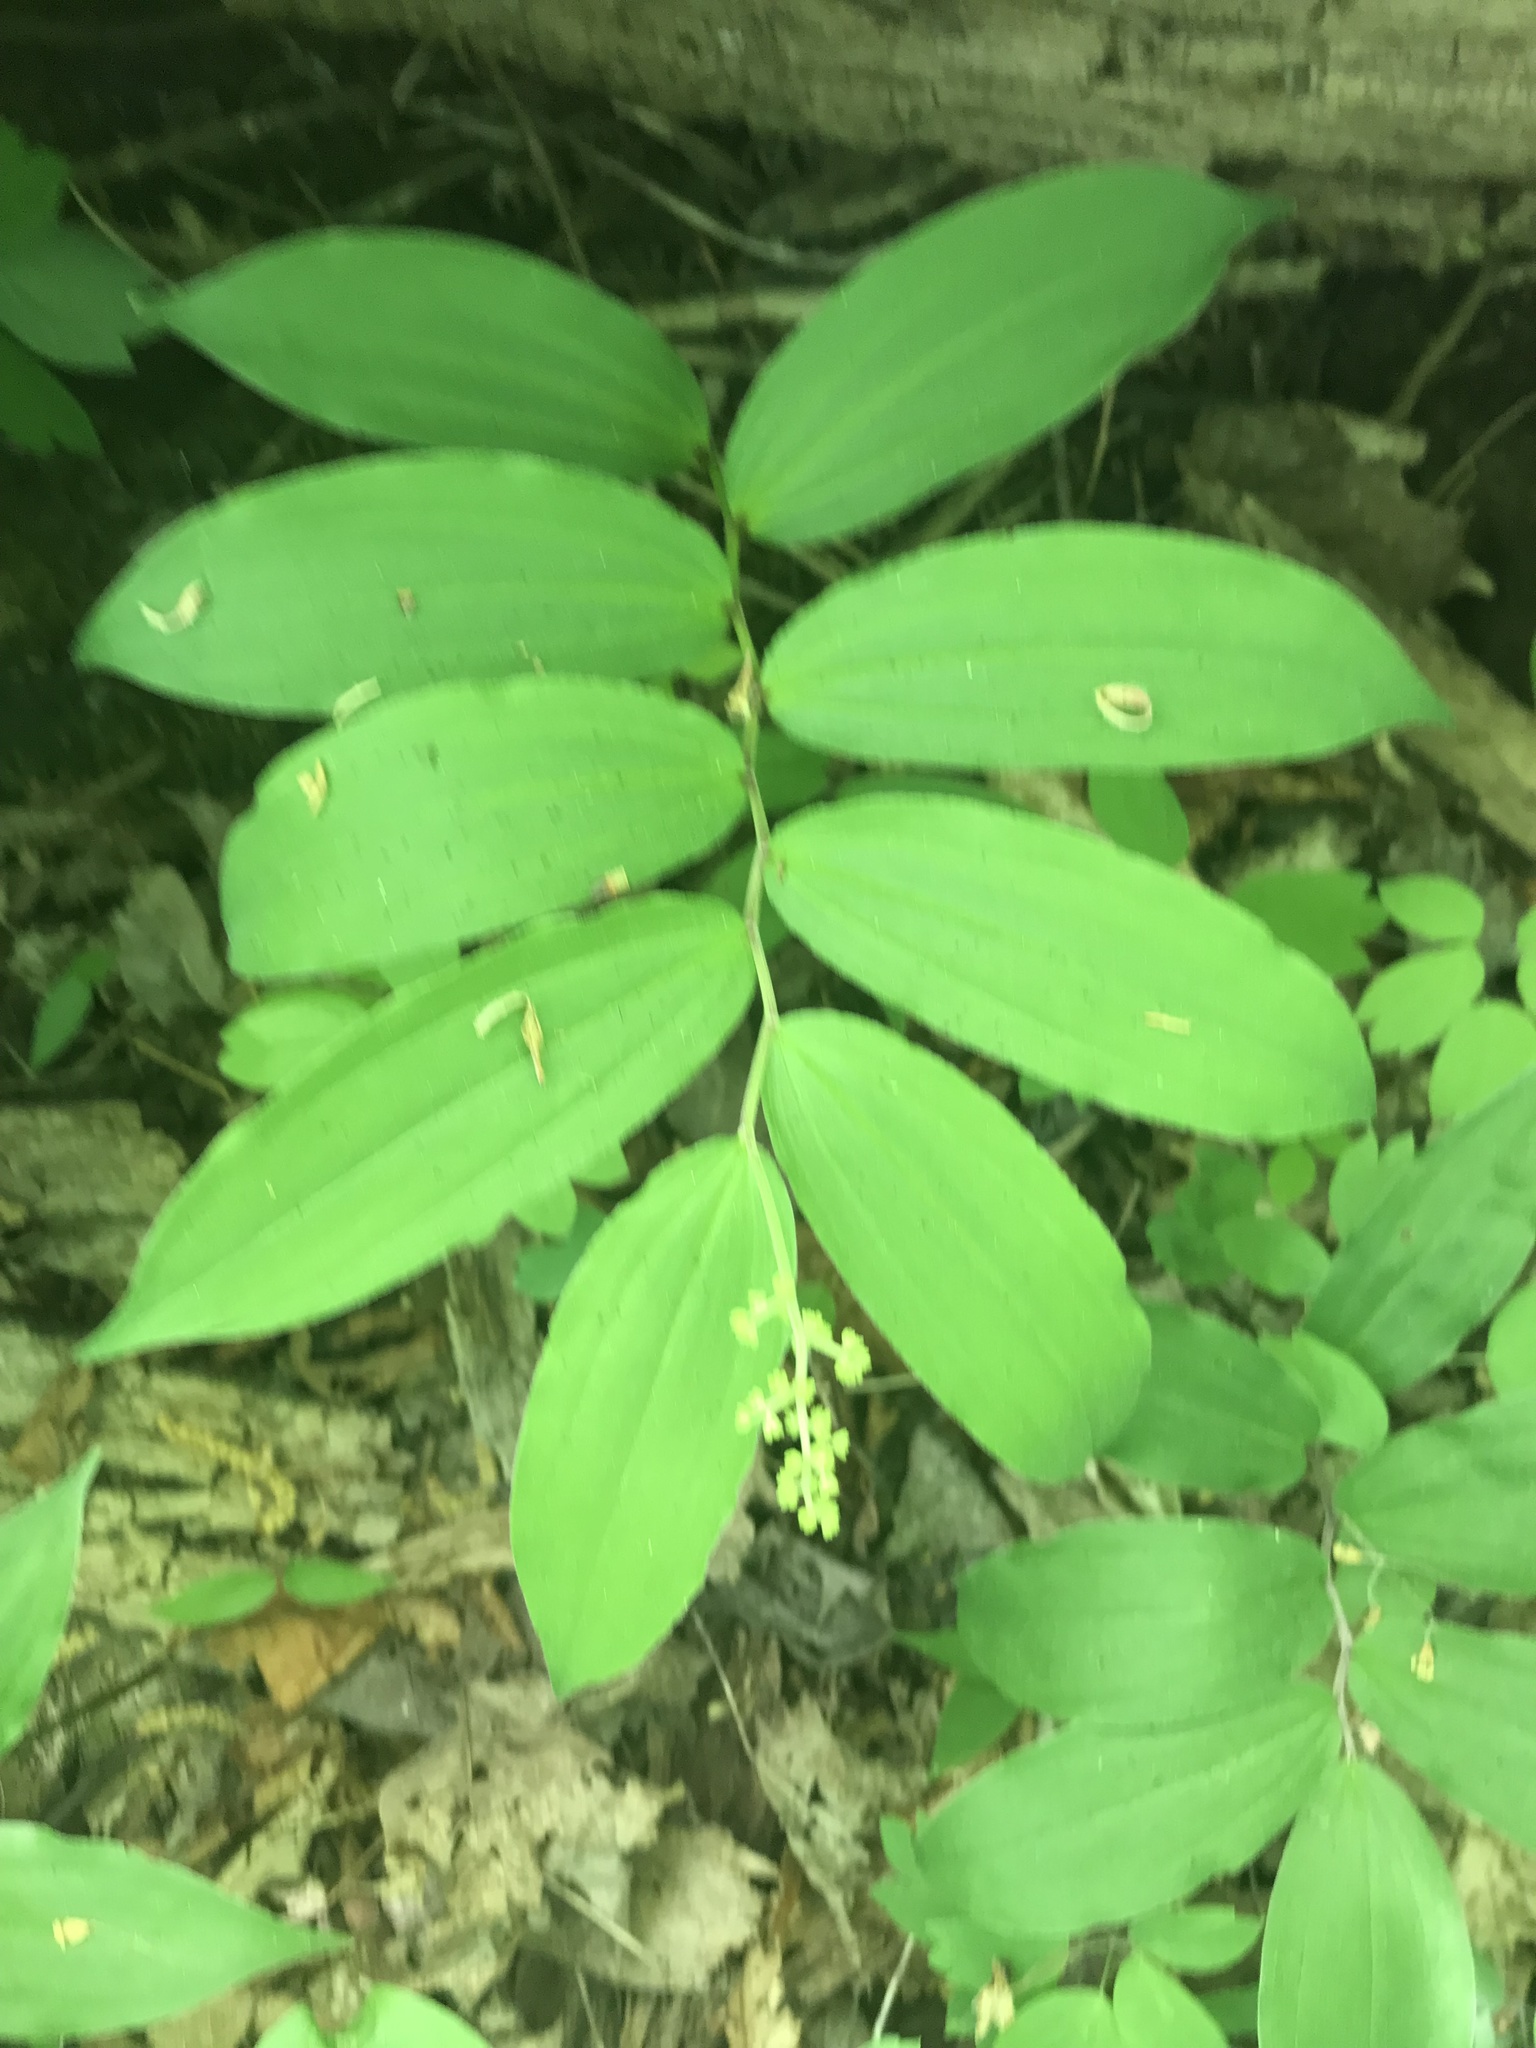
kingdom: Plantae
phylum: Tracheophyta
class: Liliopsida
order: Asparagales
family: Asparagaceae
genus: Maianthemum
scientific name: Maianthemum racemosum
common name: False spikenard
